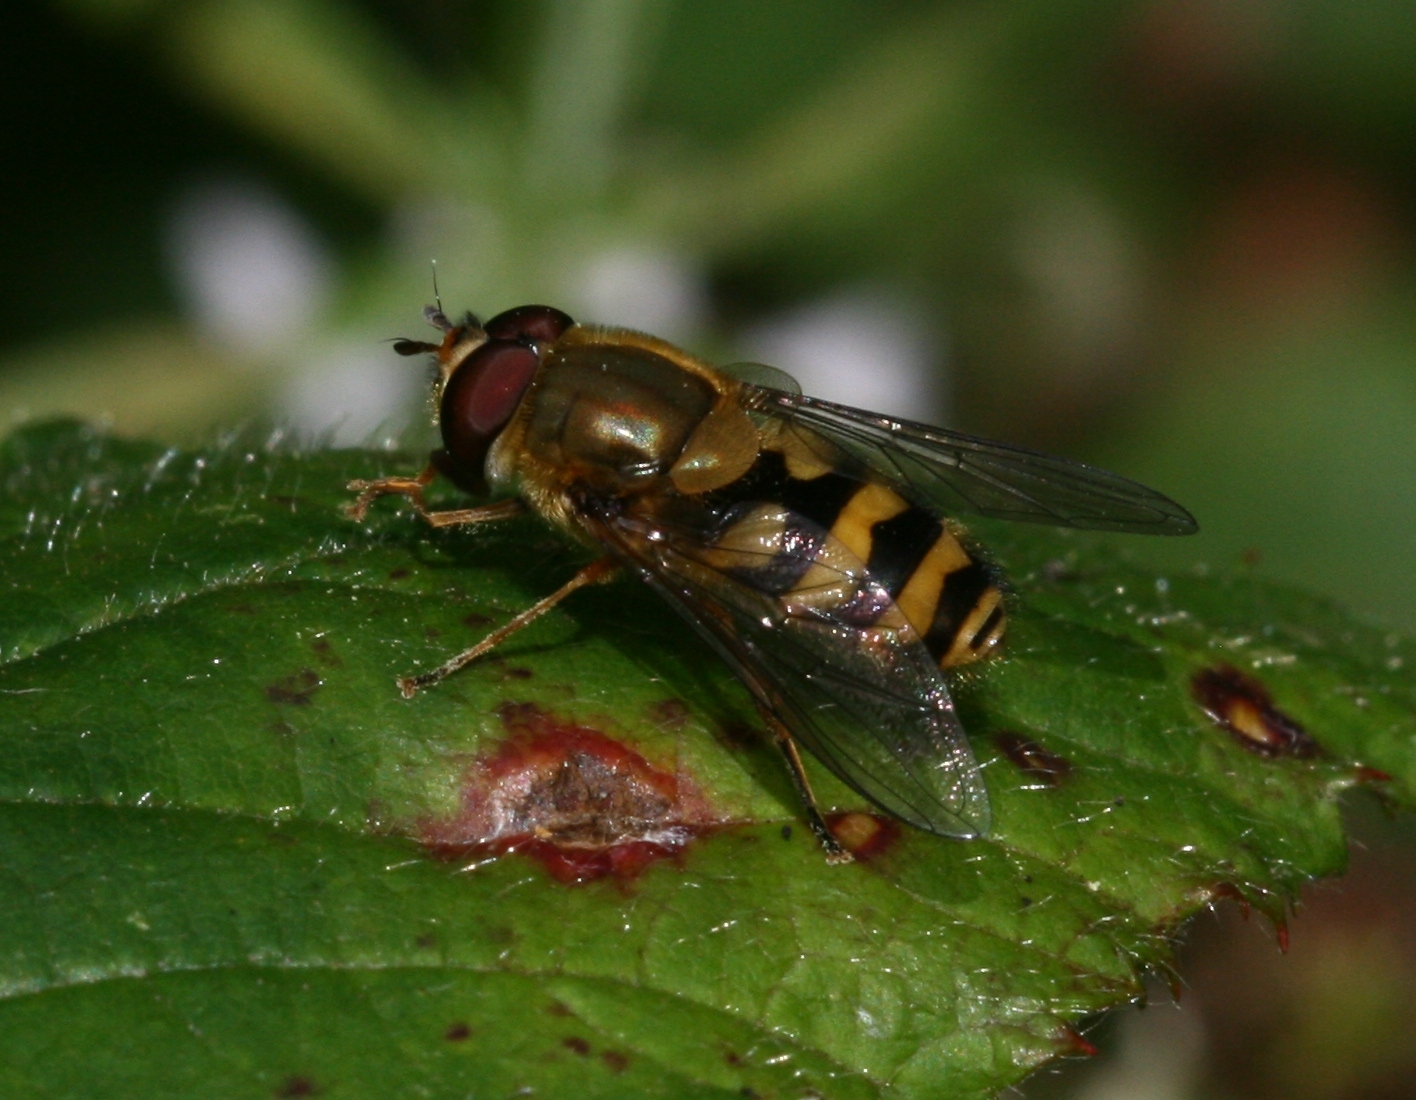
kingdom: Animalia
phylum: Arthropoda
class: Insecta
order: Diptera
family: Syrphidae
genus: Syrphus
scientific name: Syrphus
